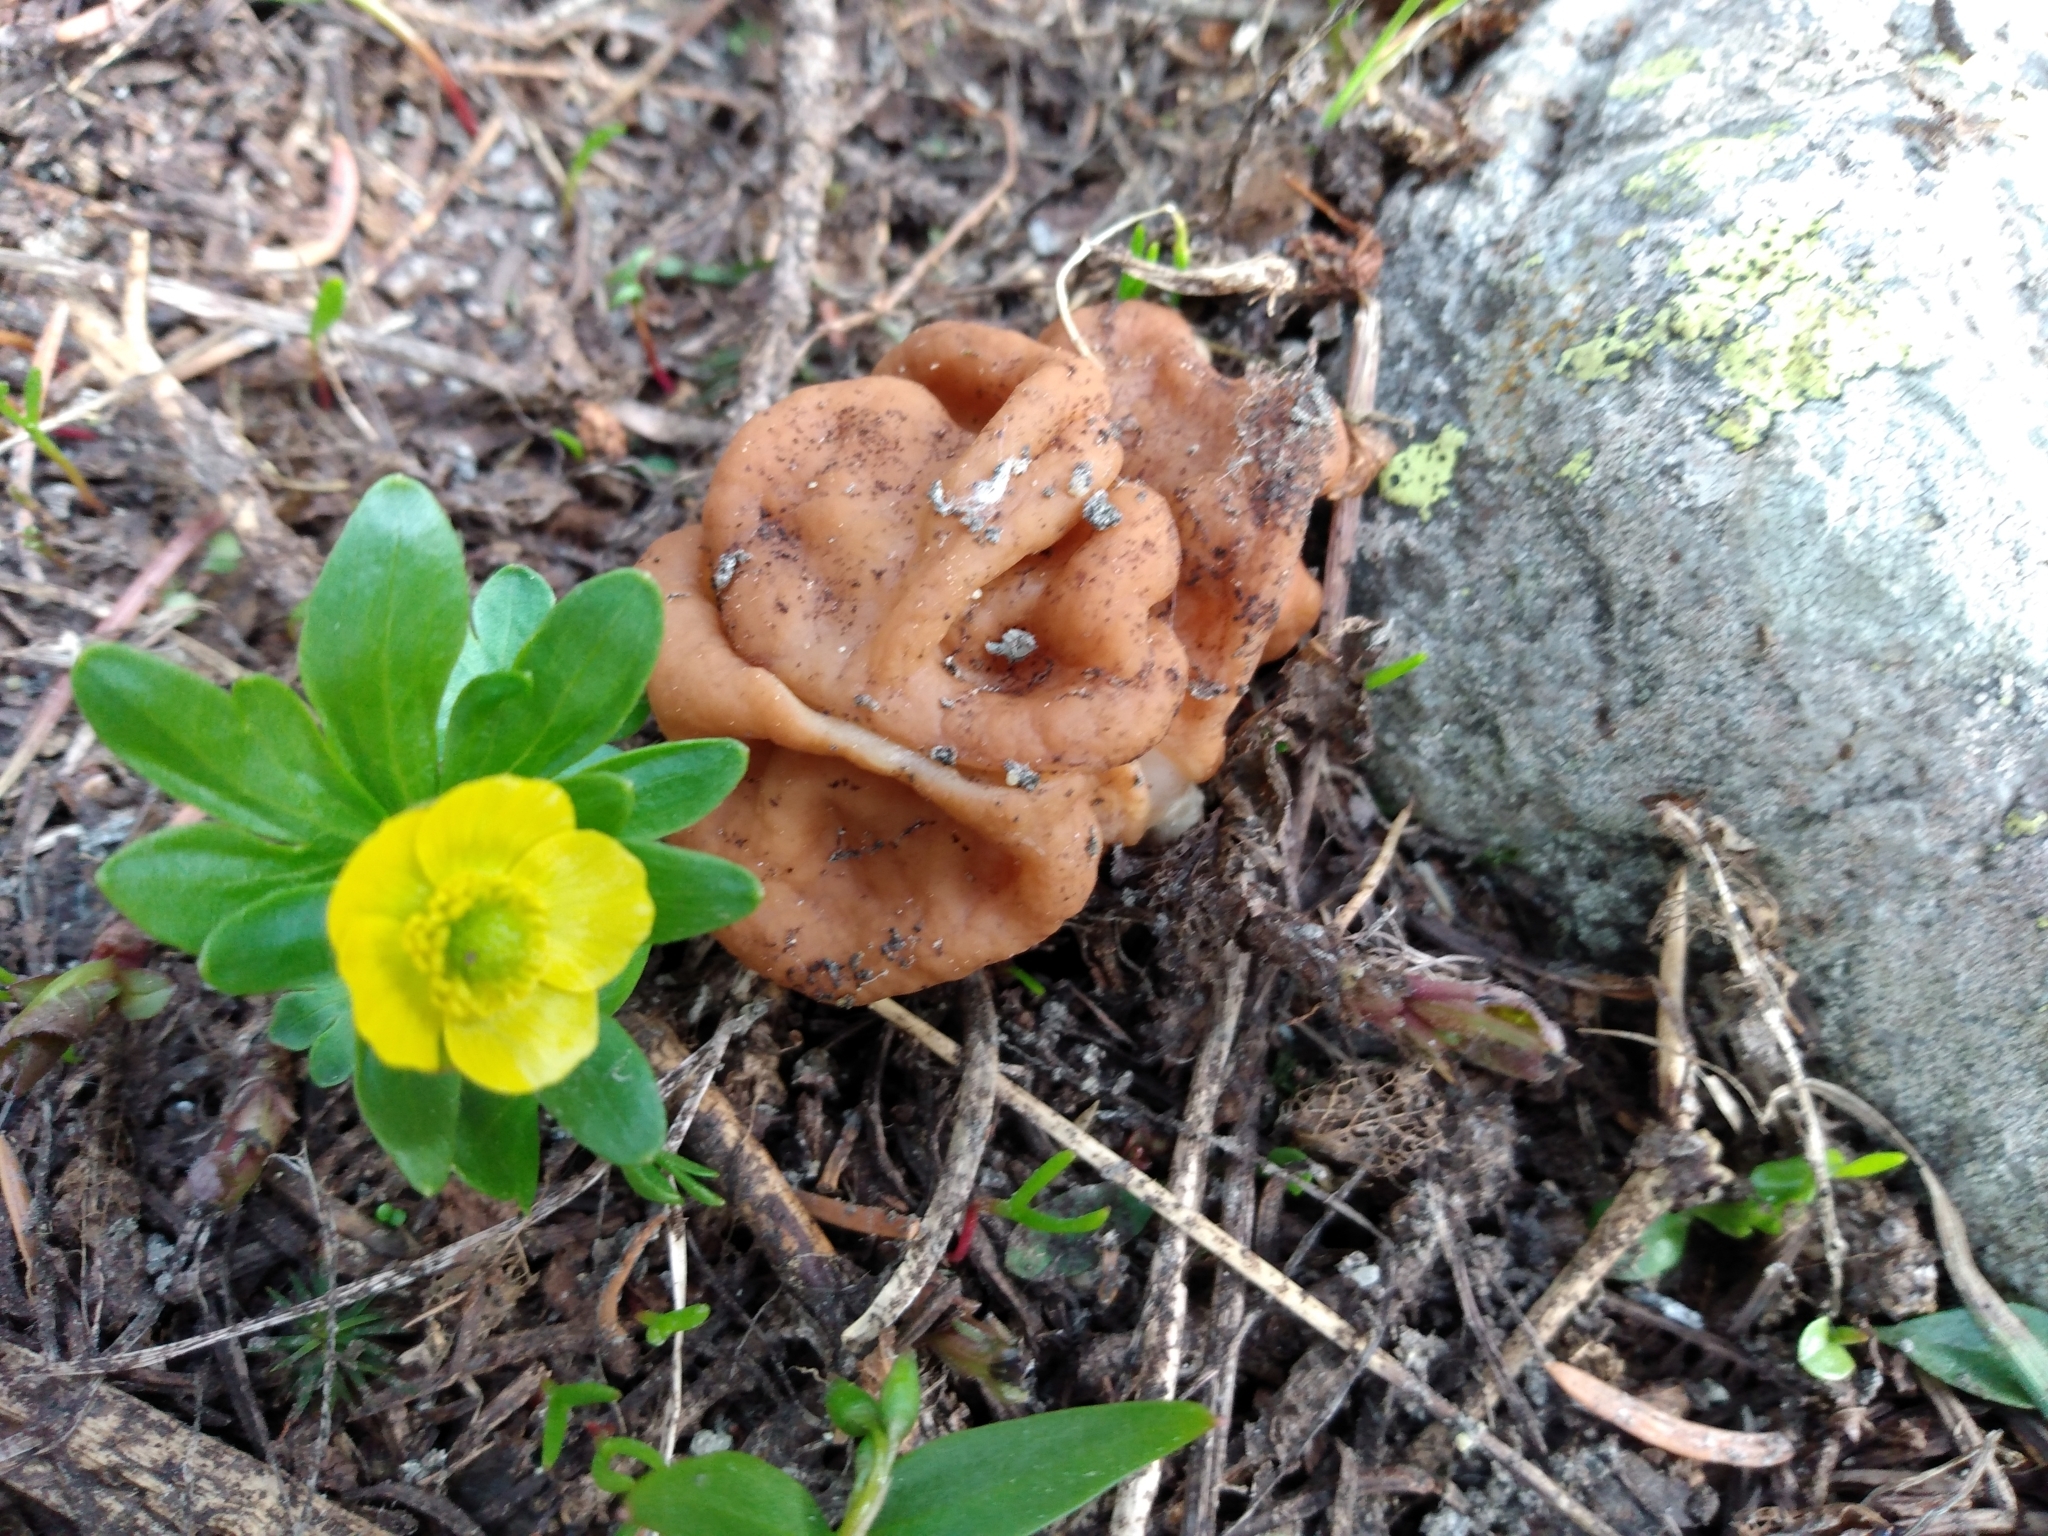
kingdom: Fungi
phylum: Ascomycota
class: Pezizomycetes
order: Pezizales
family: Discinaceae
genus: Discina
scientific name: Discina montana
